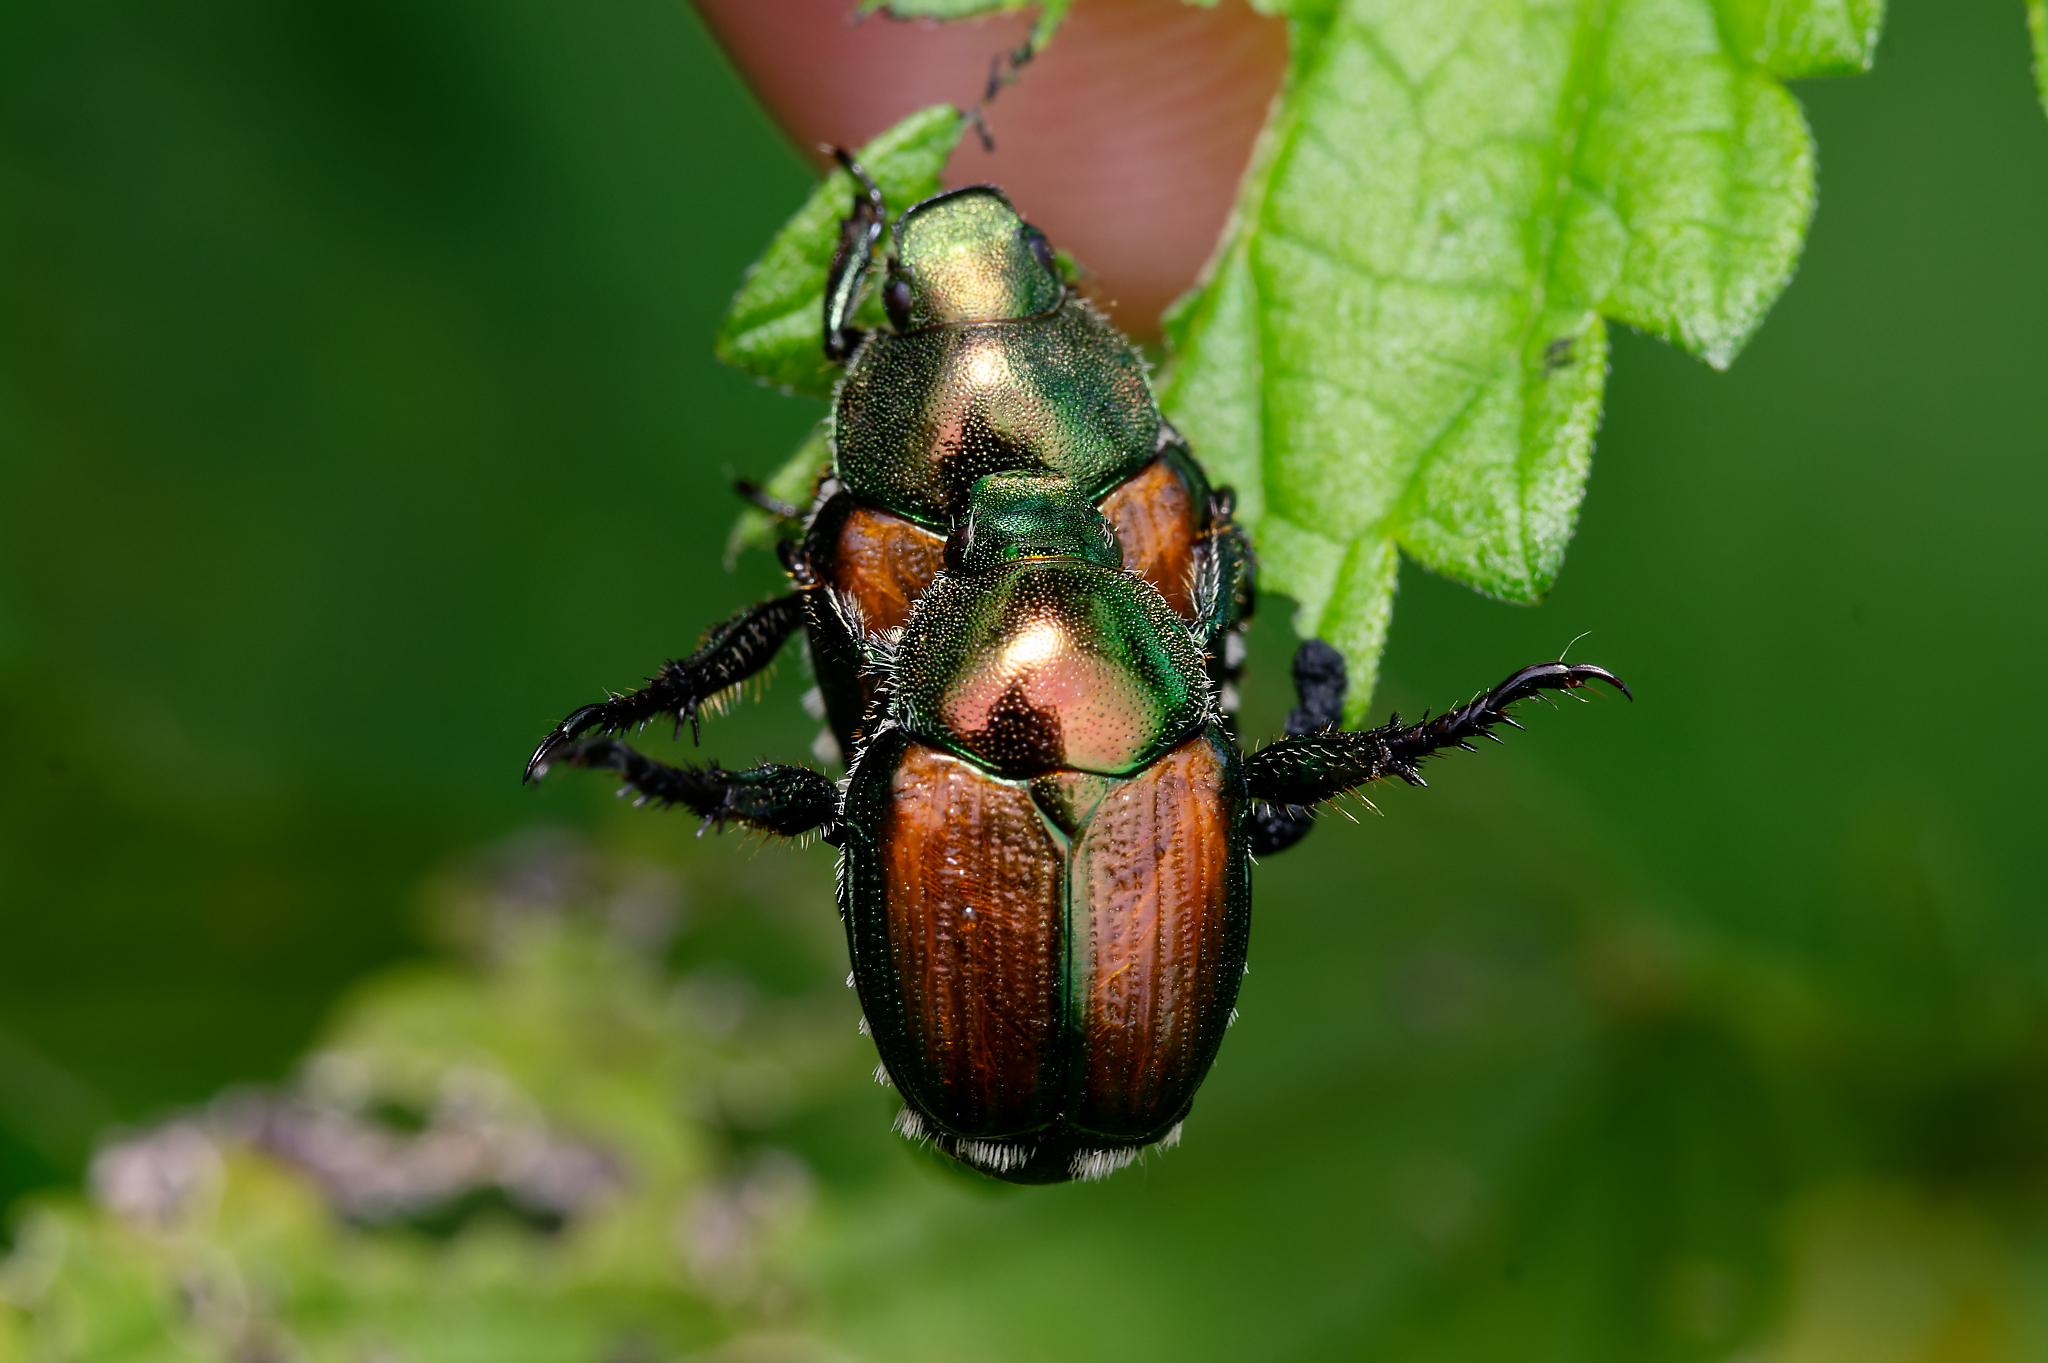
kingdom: Animalia
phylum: Arthropoda
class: Insecta
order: Coleoptera
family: Scarabaeidae
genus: Popillia
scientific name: Popillia japonica
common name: Japanese beetle
